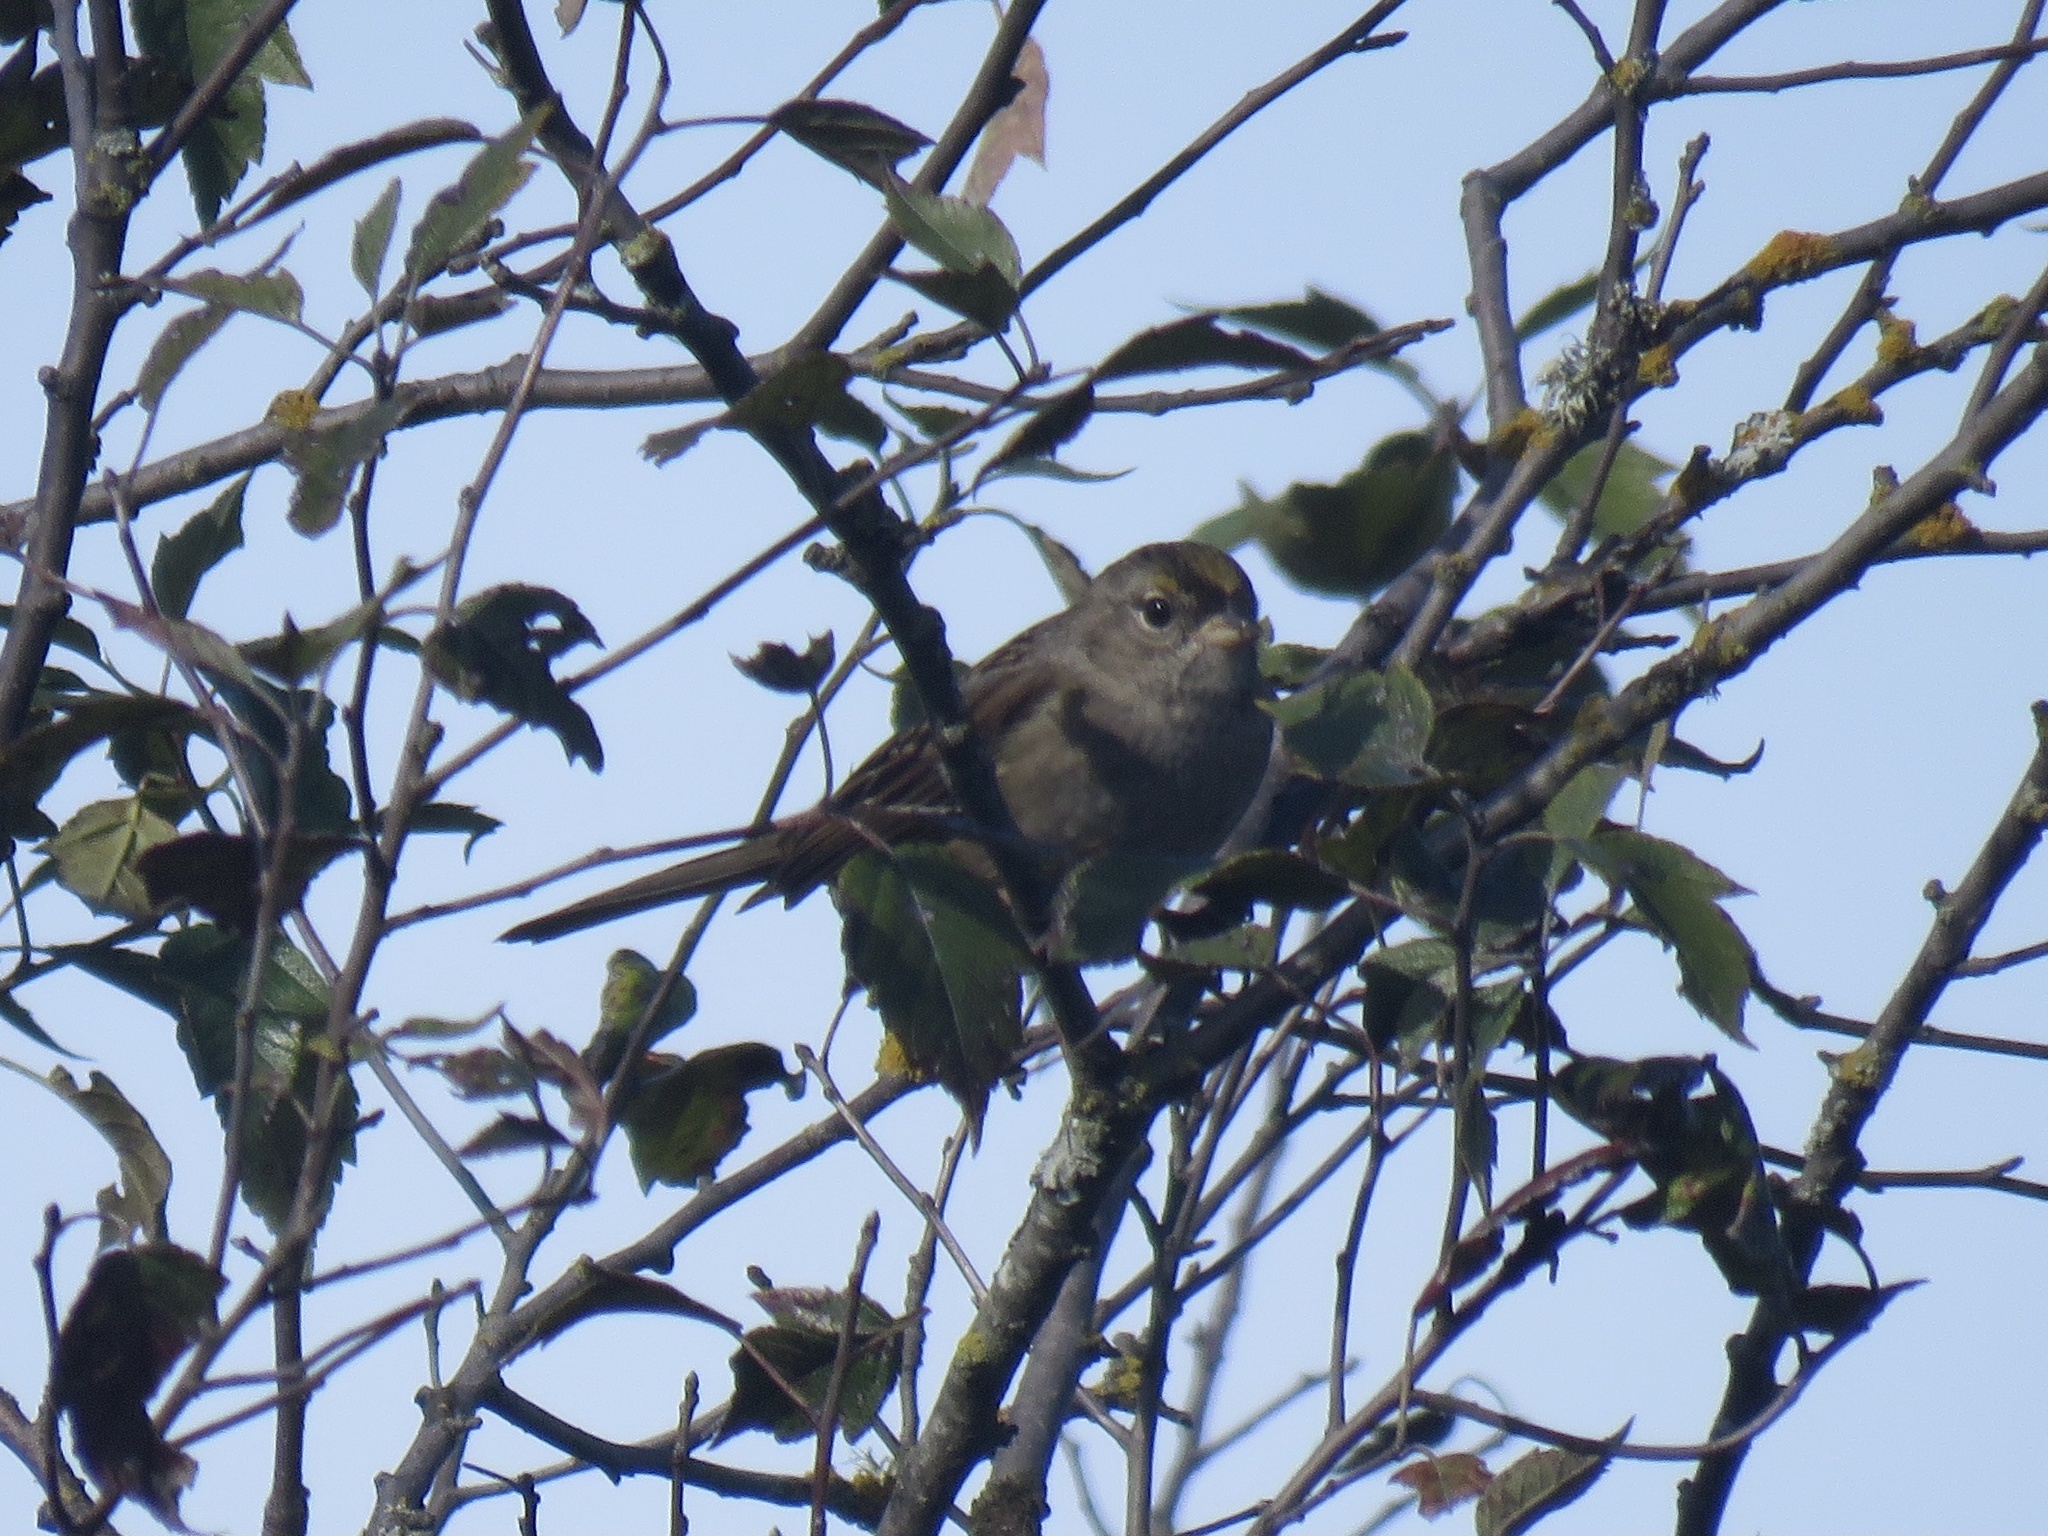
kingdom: Animalia
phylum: Chordata
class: Aves
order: Passeriformes
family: Passerellidae
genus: Zonotrichia
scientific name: Zonotrichia atricapilla
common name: Golden-crowned sparrow
